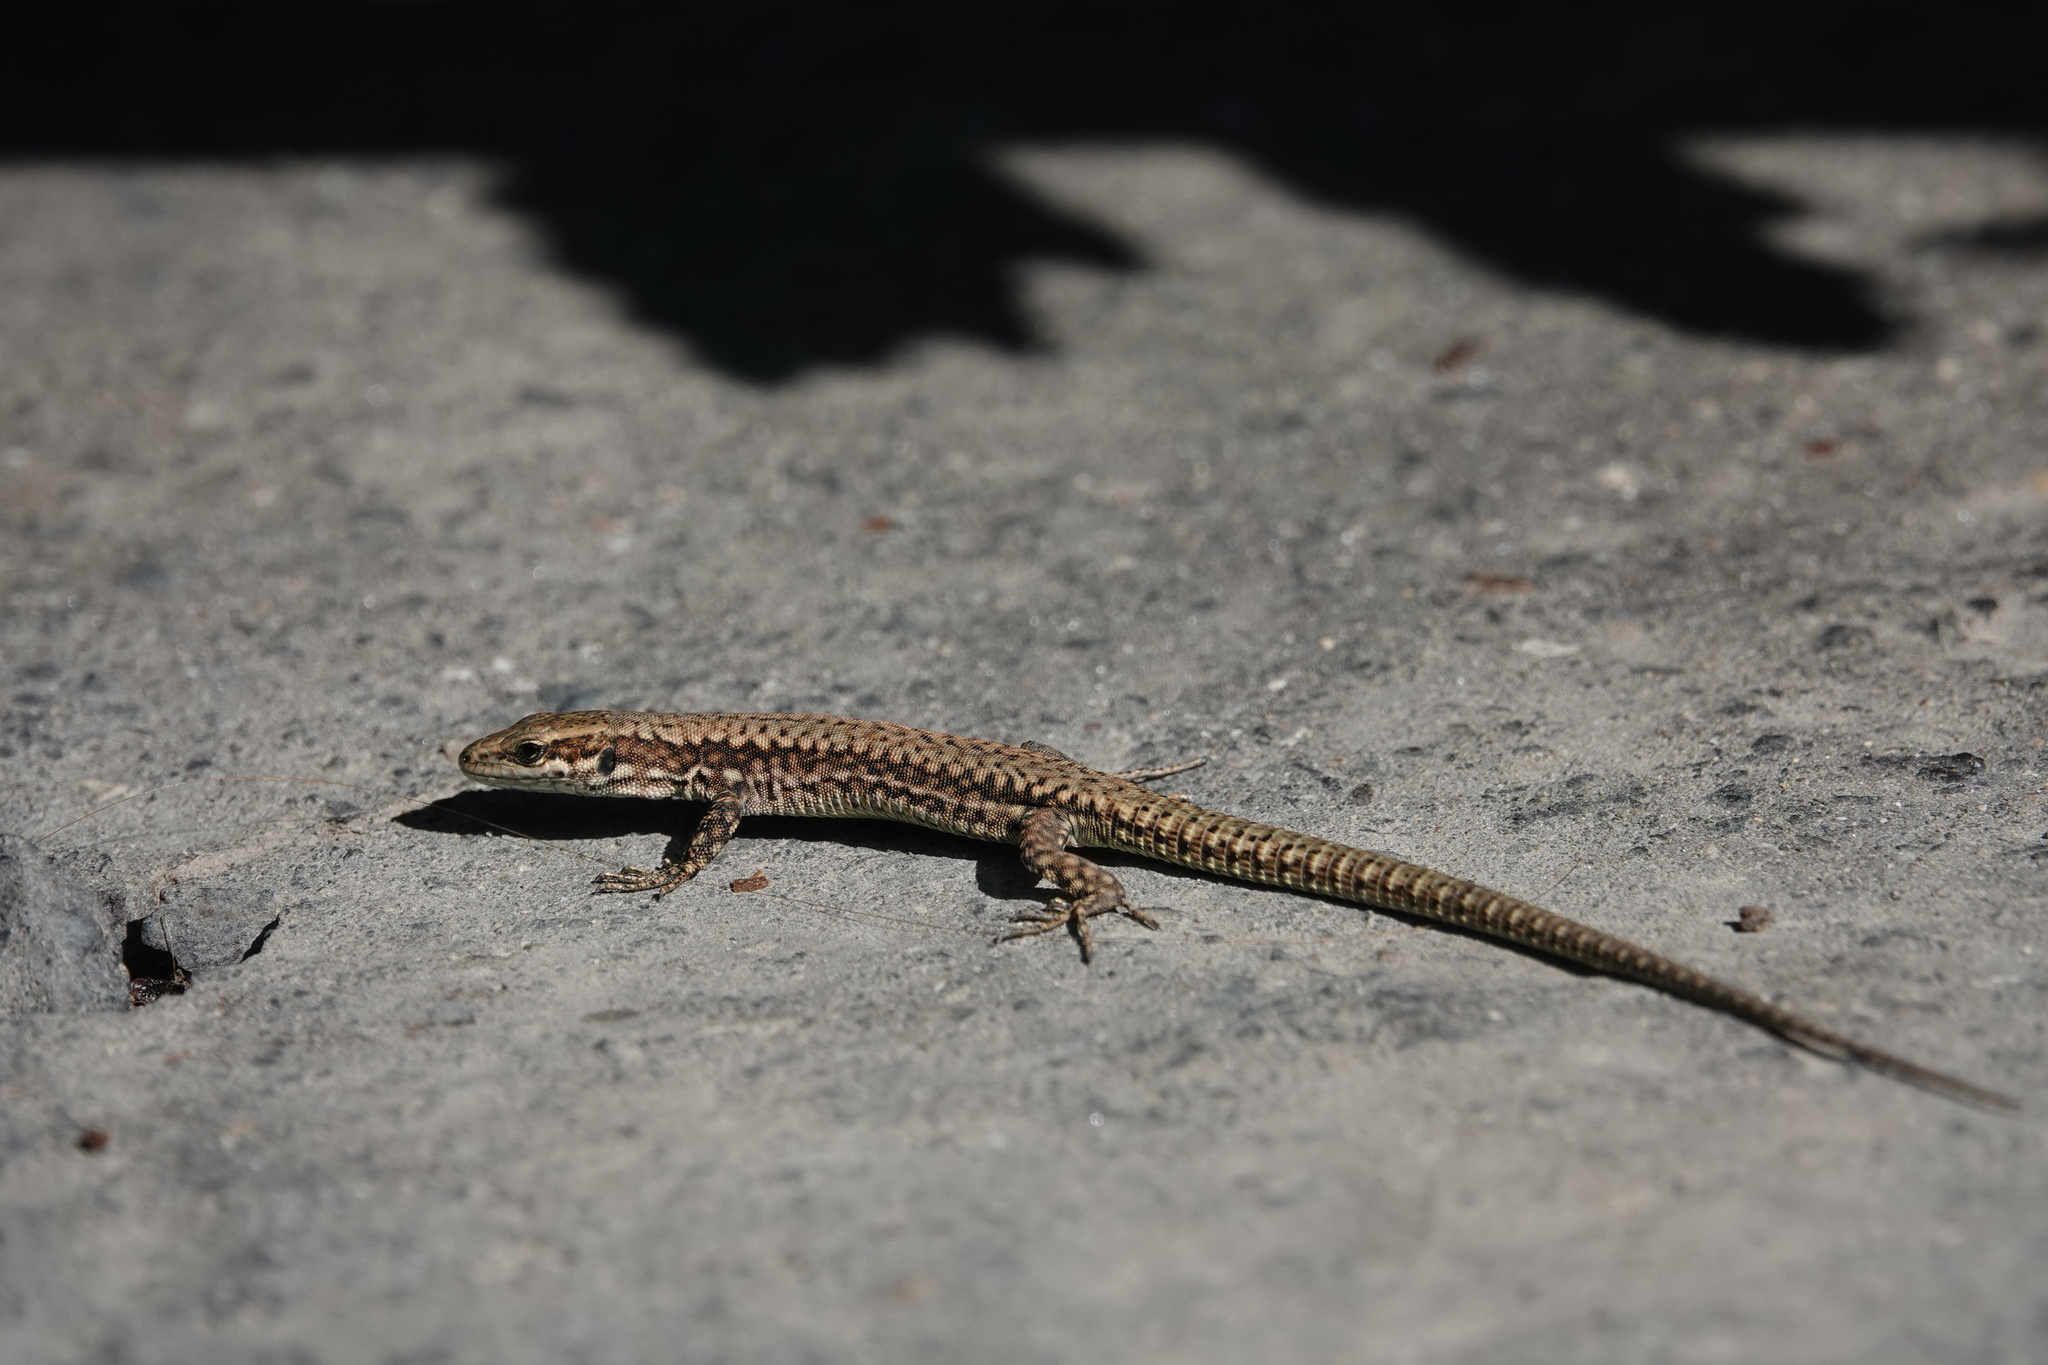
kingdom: Animalia
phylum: Chordata
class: Squamata
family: Lacertidae
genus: Podarcis
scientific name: Podarcis muralis
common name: Common wall lizard
